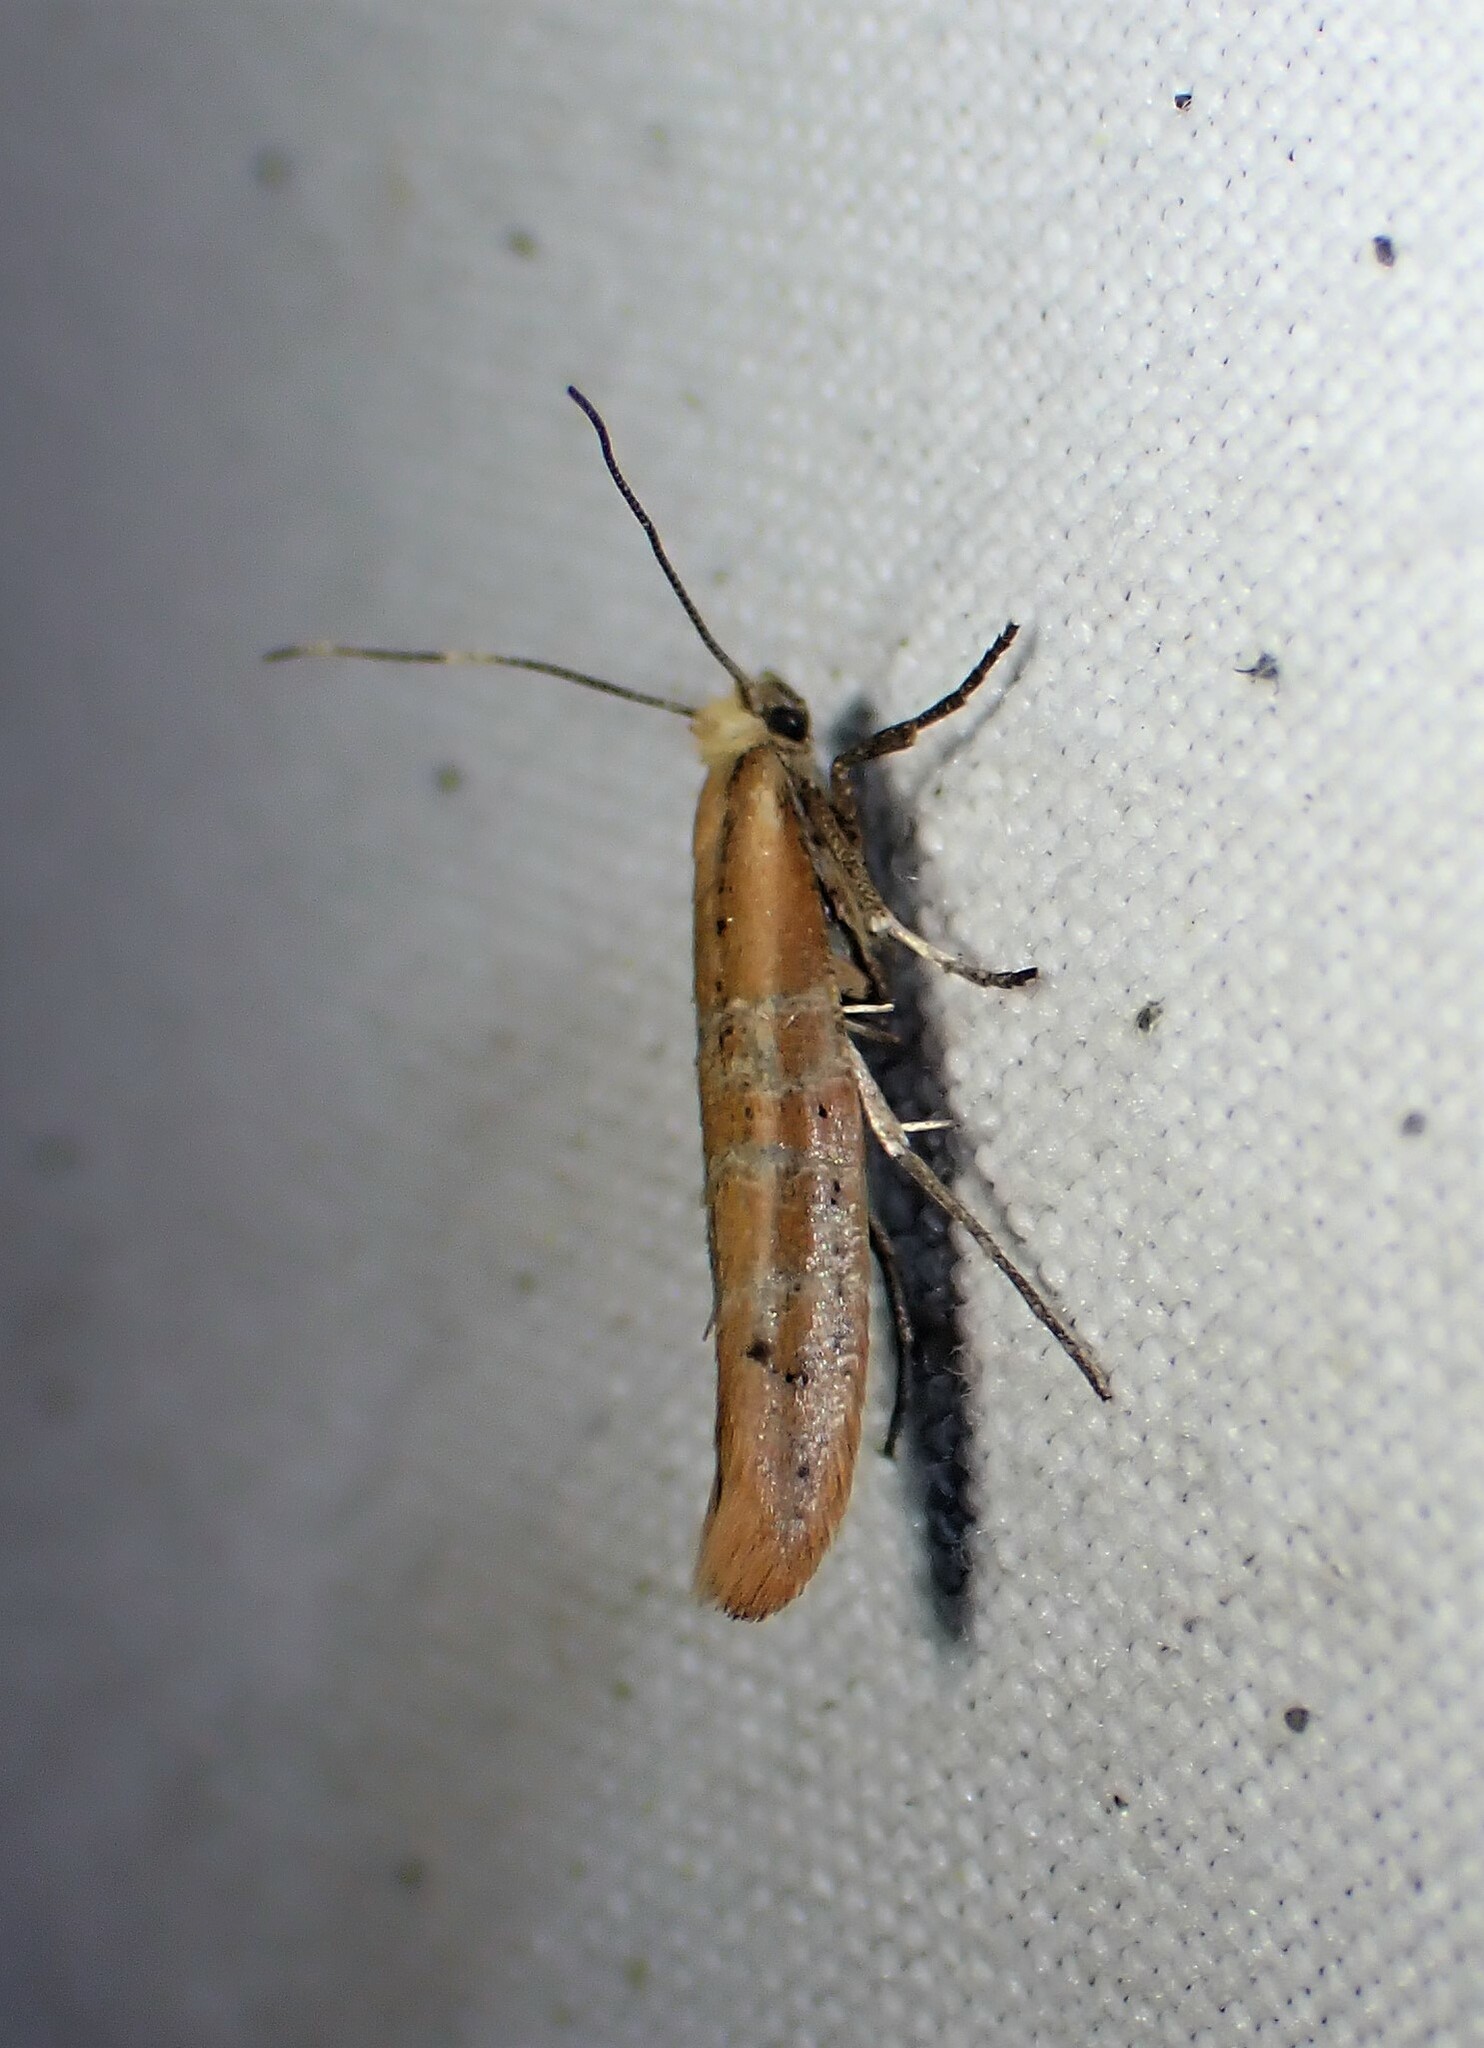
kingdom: Animalia
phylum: Arthropoda
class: Insecta
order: Lepidoptera
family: Yponomeutidae
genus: Euhyponomeutoides
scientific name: Euhyponomeutoides gracilariella
